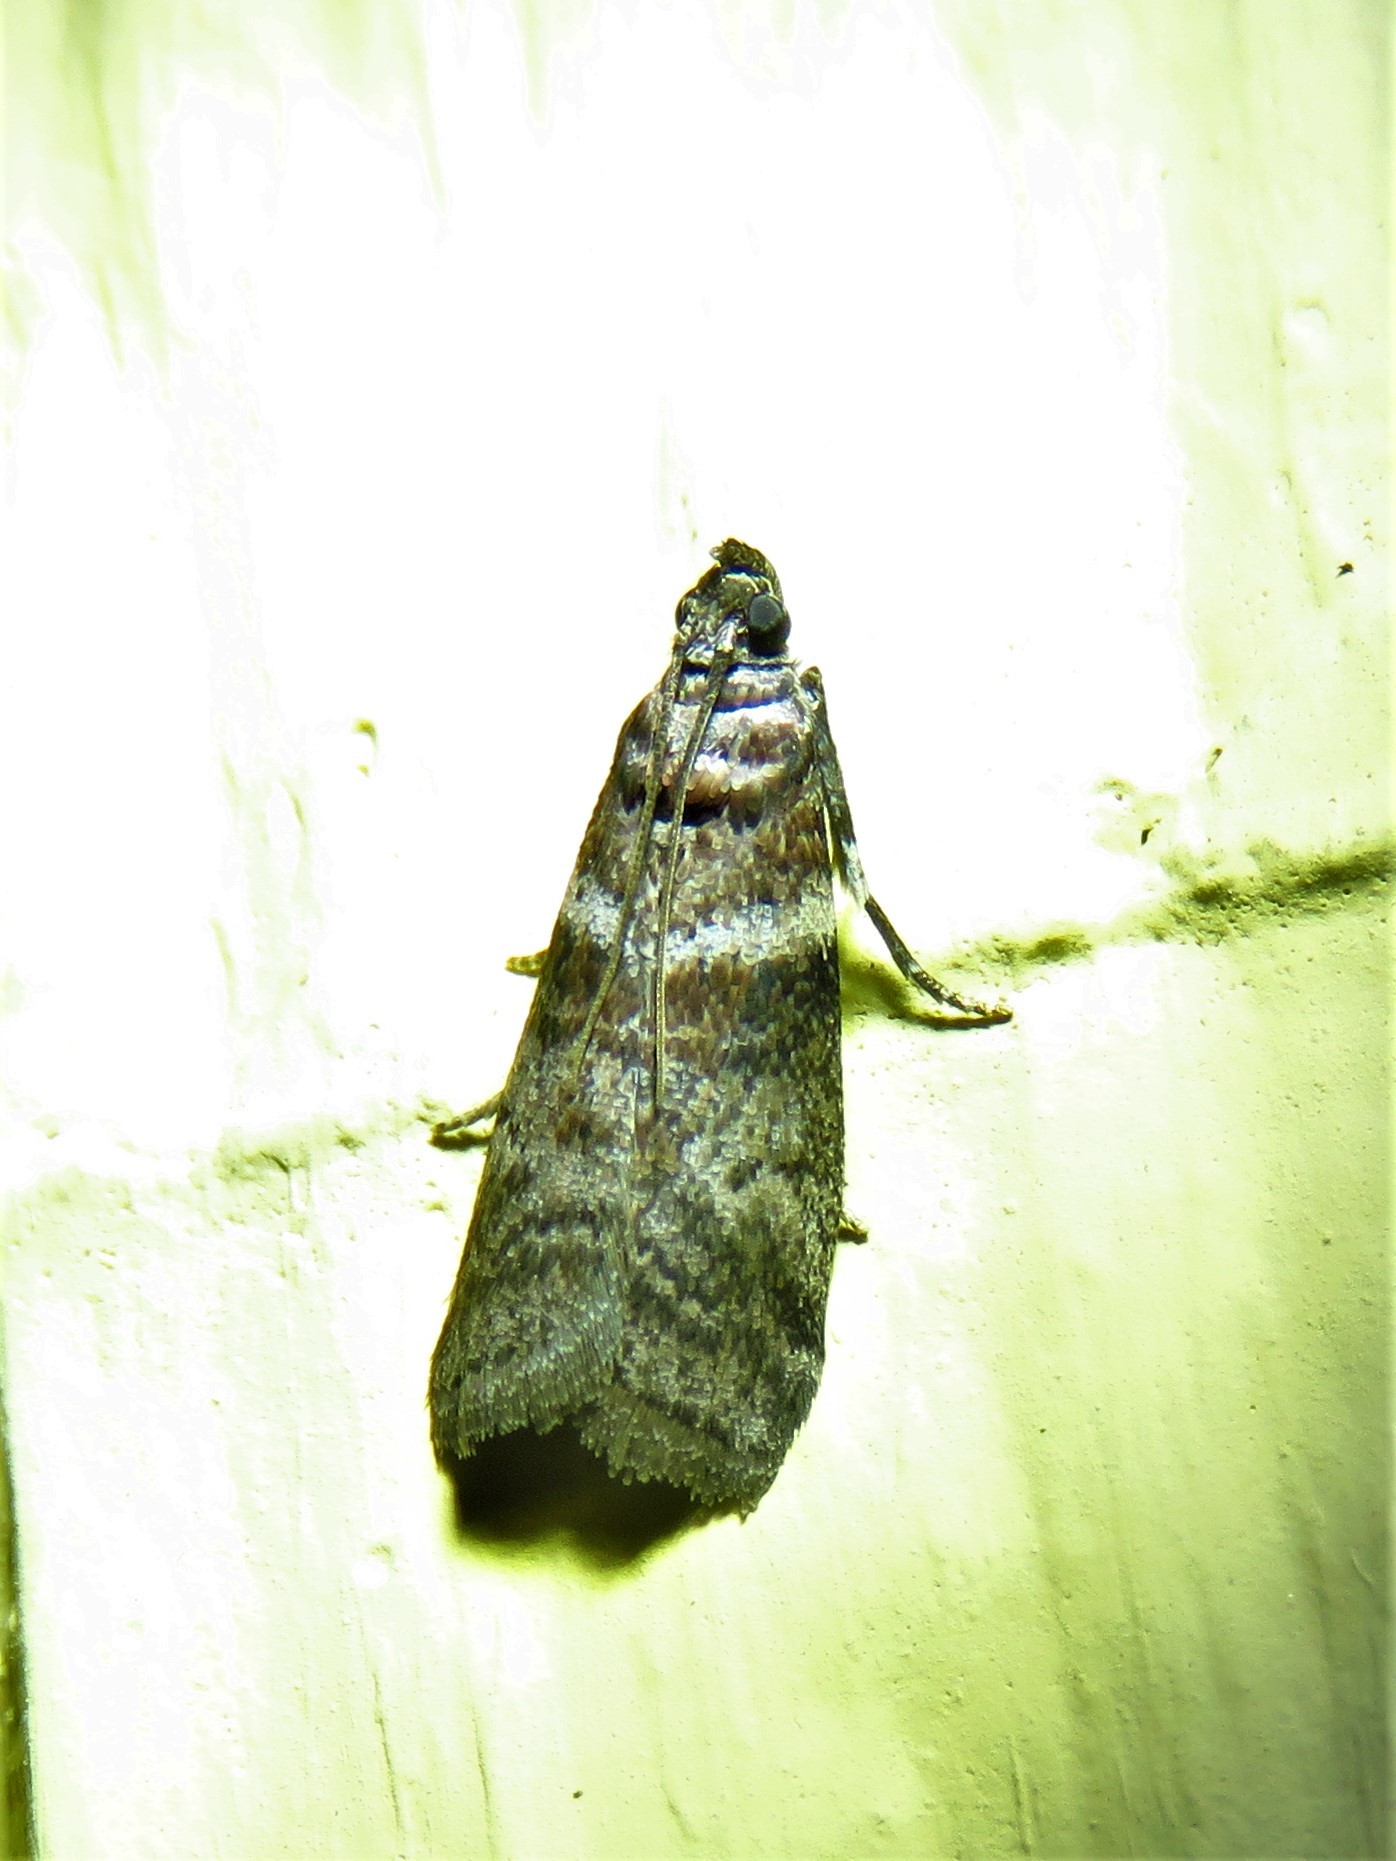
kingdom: Animalia
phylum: Arthropoda
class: Insecta
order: Lepidoptera
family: Pyralidae
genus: Sciota
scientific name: Sciota uvinella
